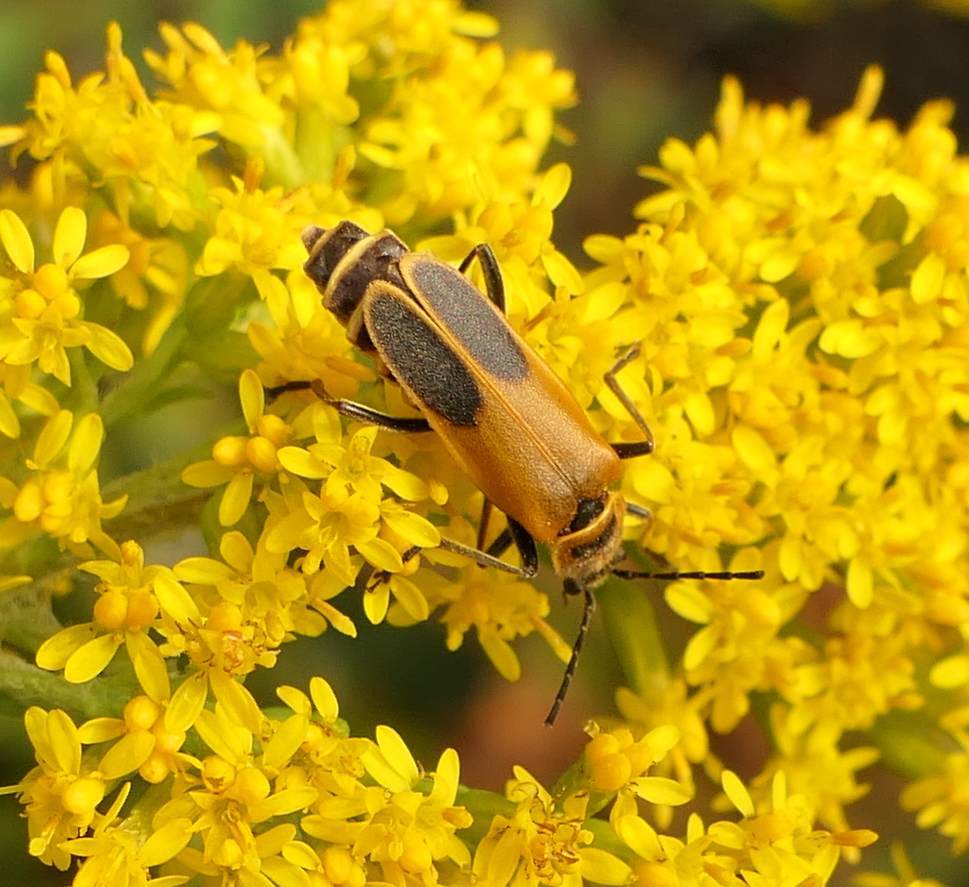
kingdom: Animalia
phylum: Arthropoda
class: Insecta
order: Coleoptera
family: Cantharidae
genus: Chauliognathus
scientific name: Chauliognathus pensylvanicus
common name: Goldenrod soldier beetle
